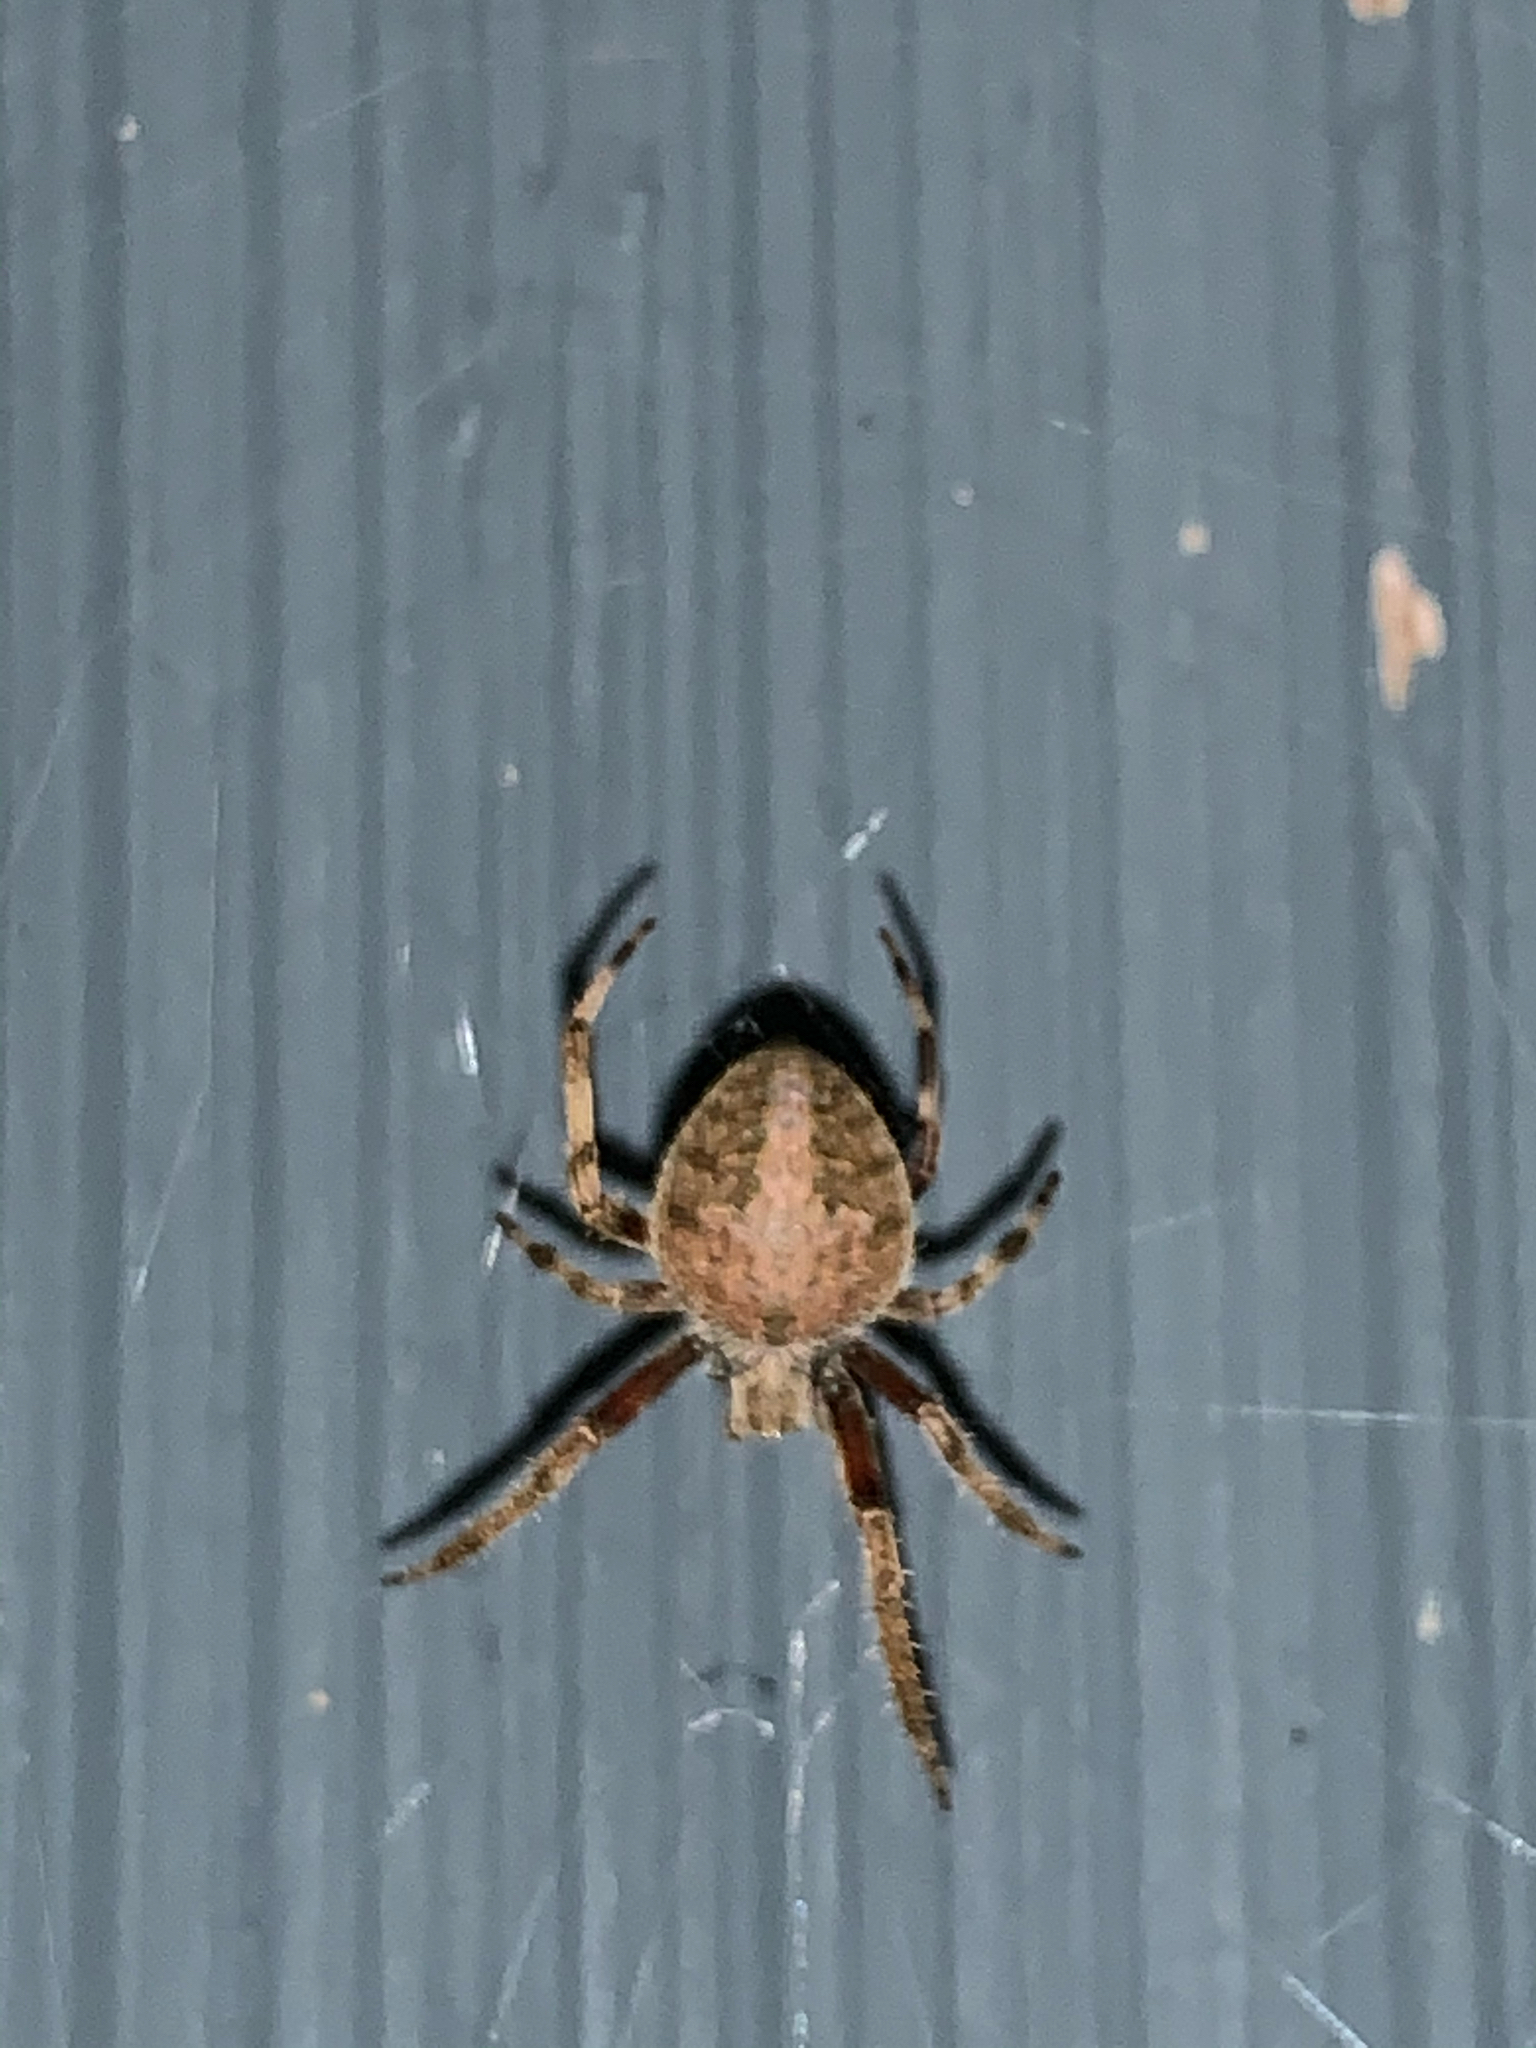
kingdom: Animalia
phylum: Arthropoda
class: Arachnida
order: Araneae
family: Araneidae
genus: Neoscona
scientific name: Neoscona crucifera
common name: Spotted orbweaver
